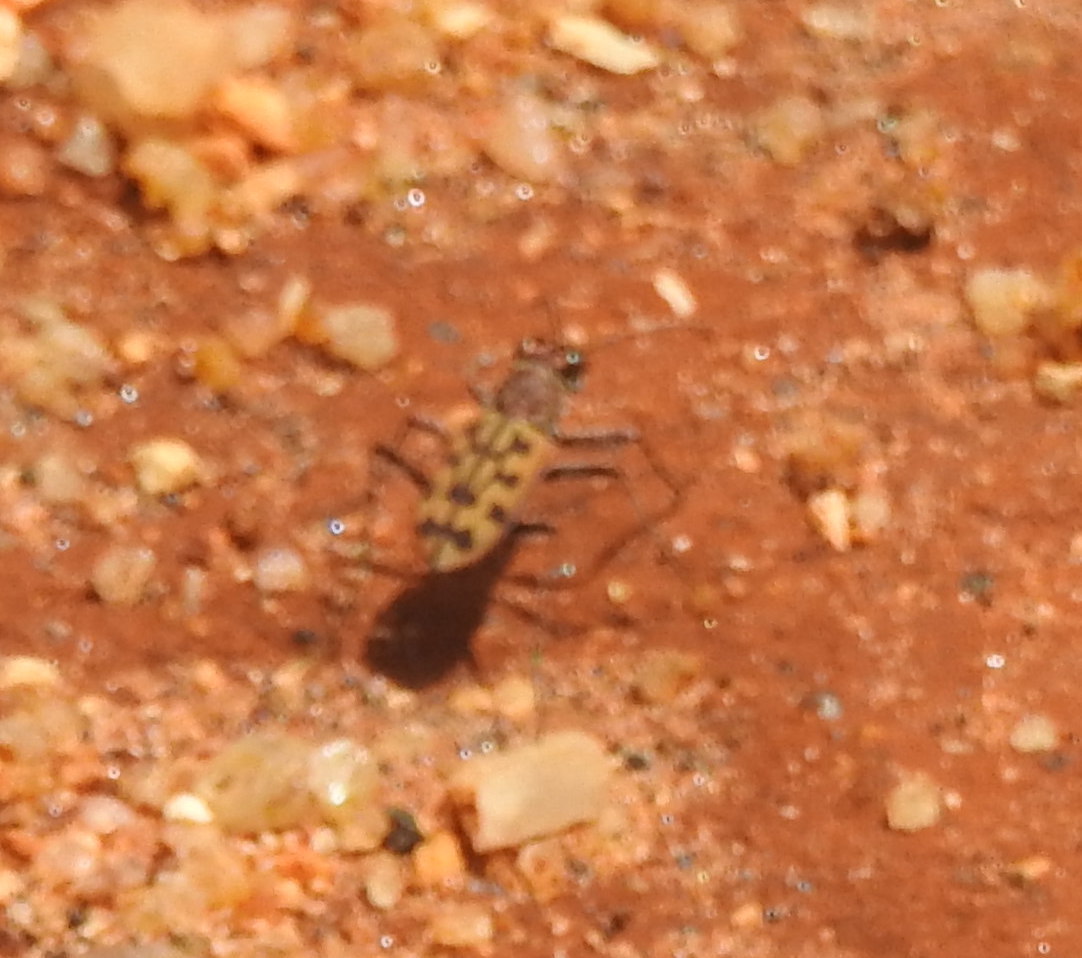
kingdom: Animalia
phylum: Arthropoda
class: Insecta
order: Coleoptera
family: Carabidae
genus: Lophyra
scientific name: Lophyra catena
